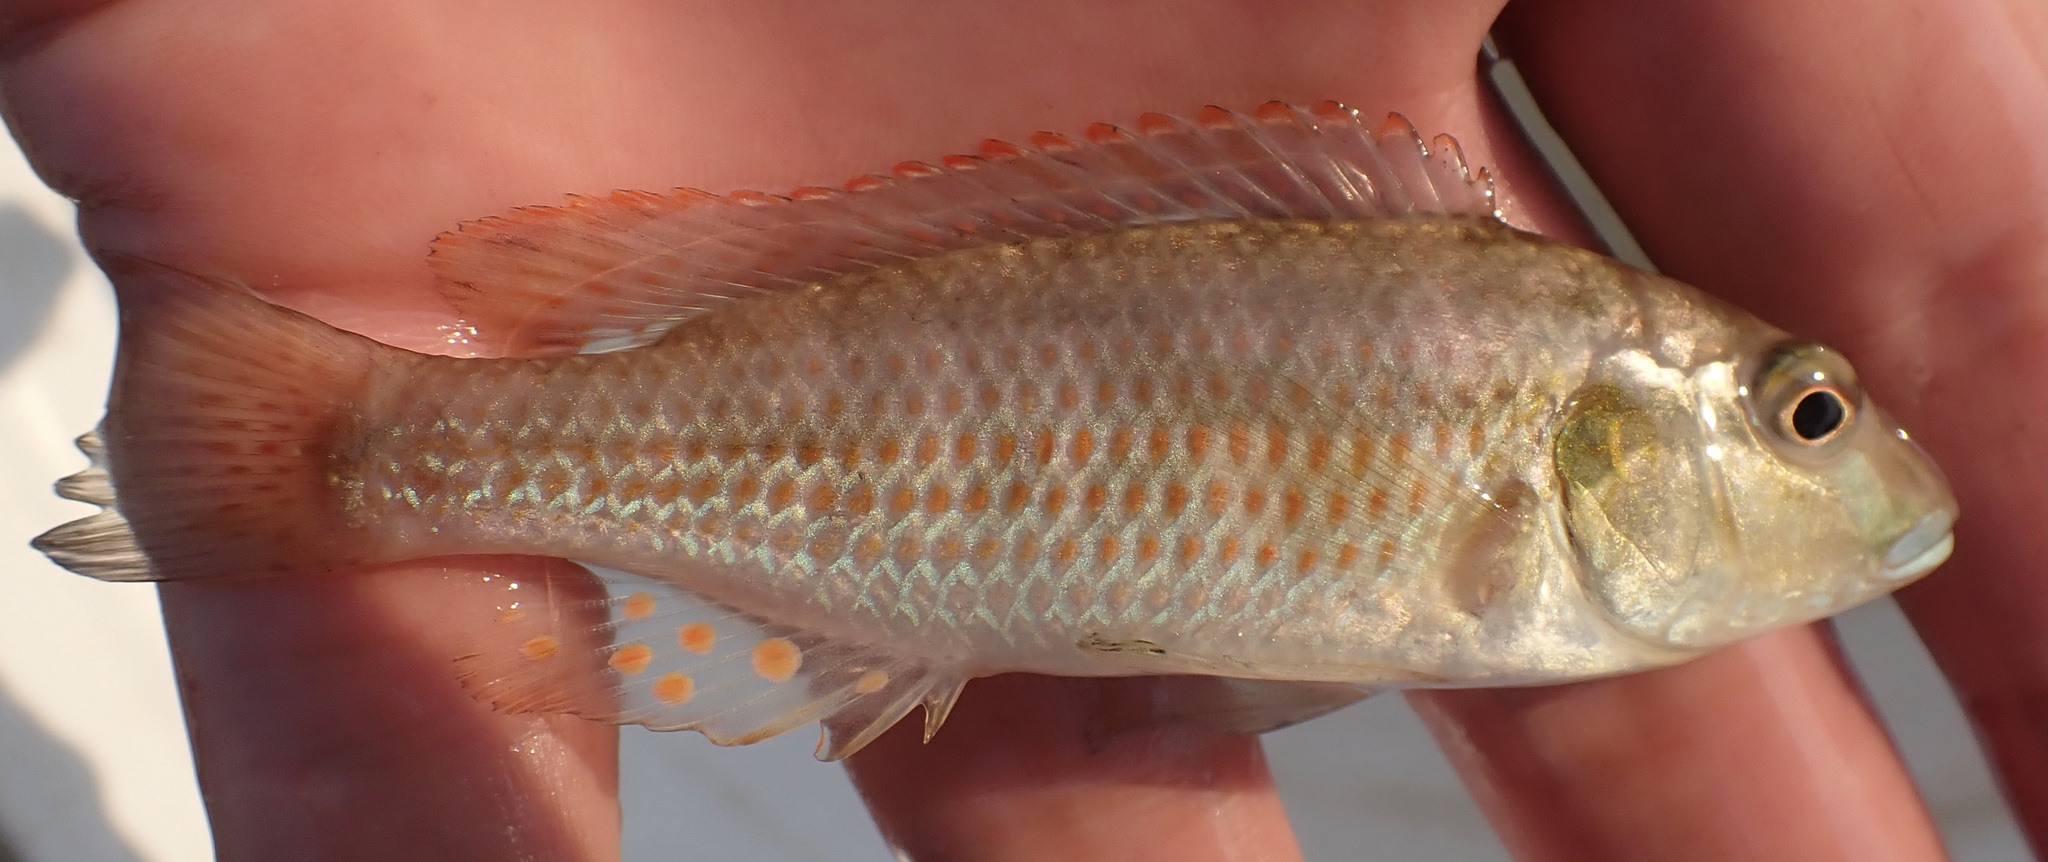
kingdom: Animalia
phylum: Chordata
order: Perciformes
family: Cichlidae
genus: Pharyngochromis
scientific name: Pharyngochromis acuticeps
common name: Zambezi happy
